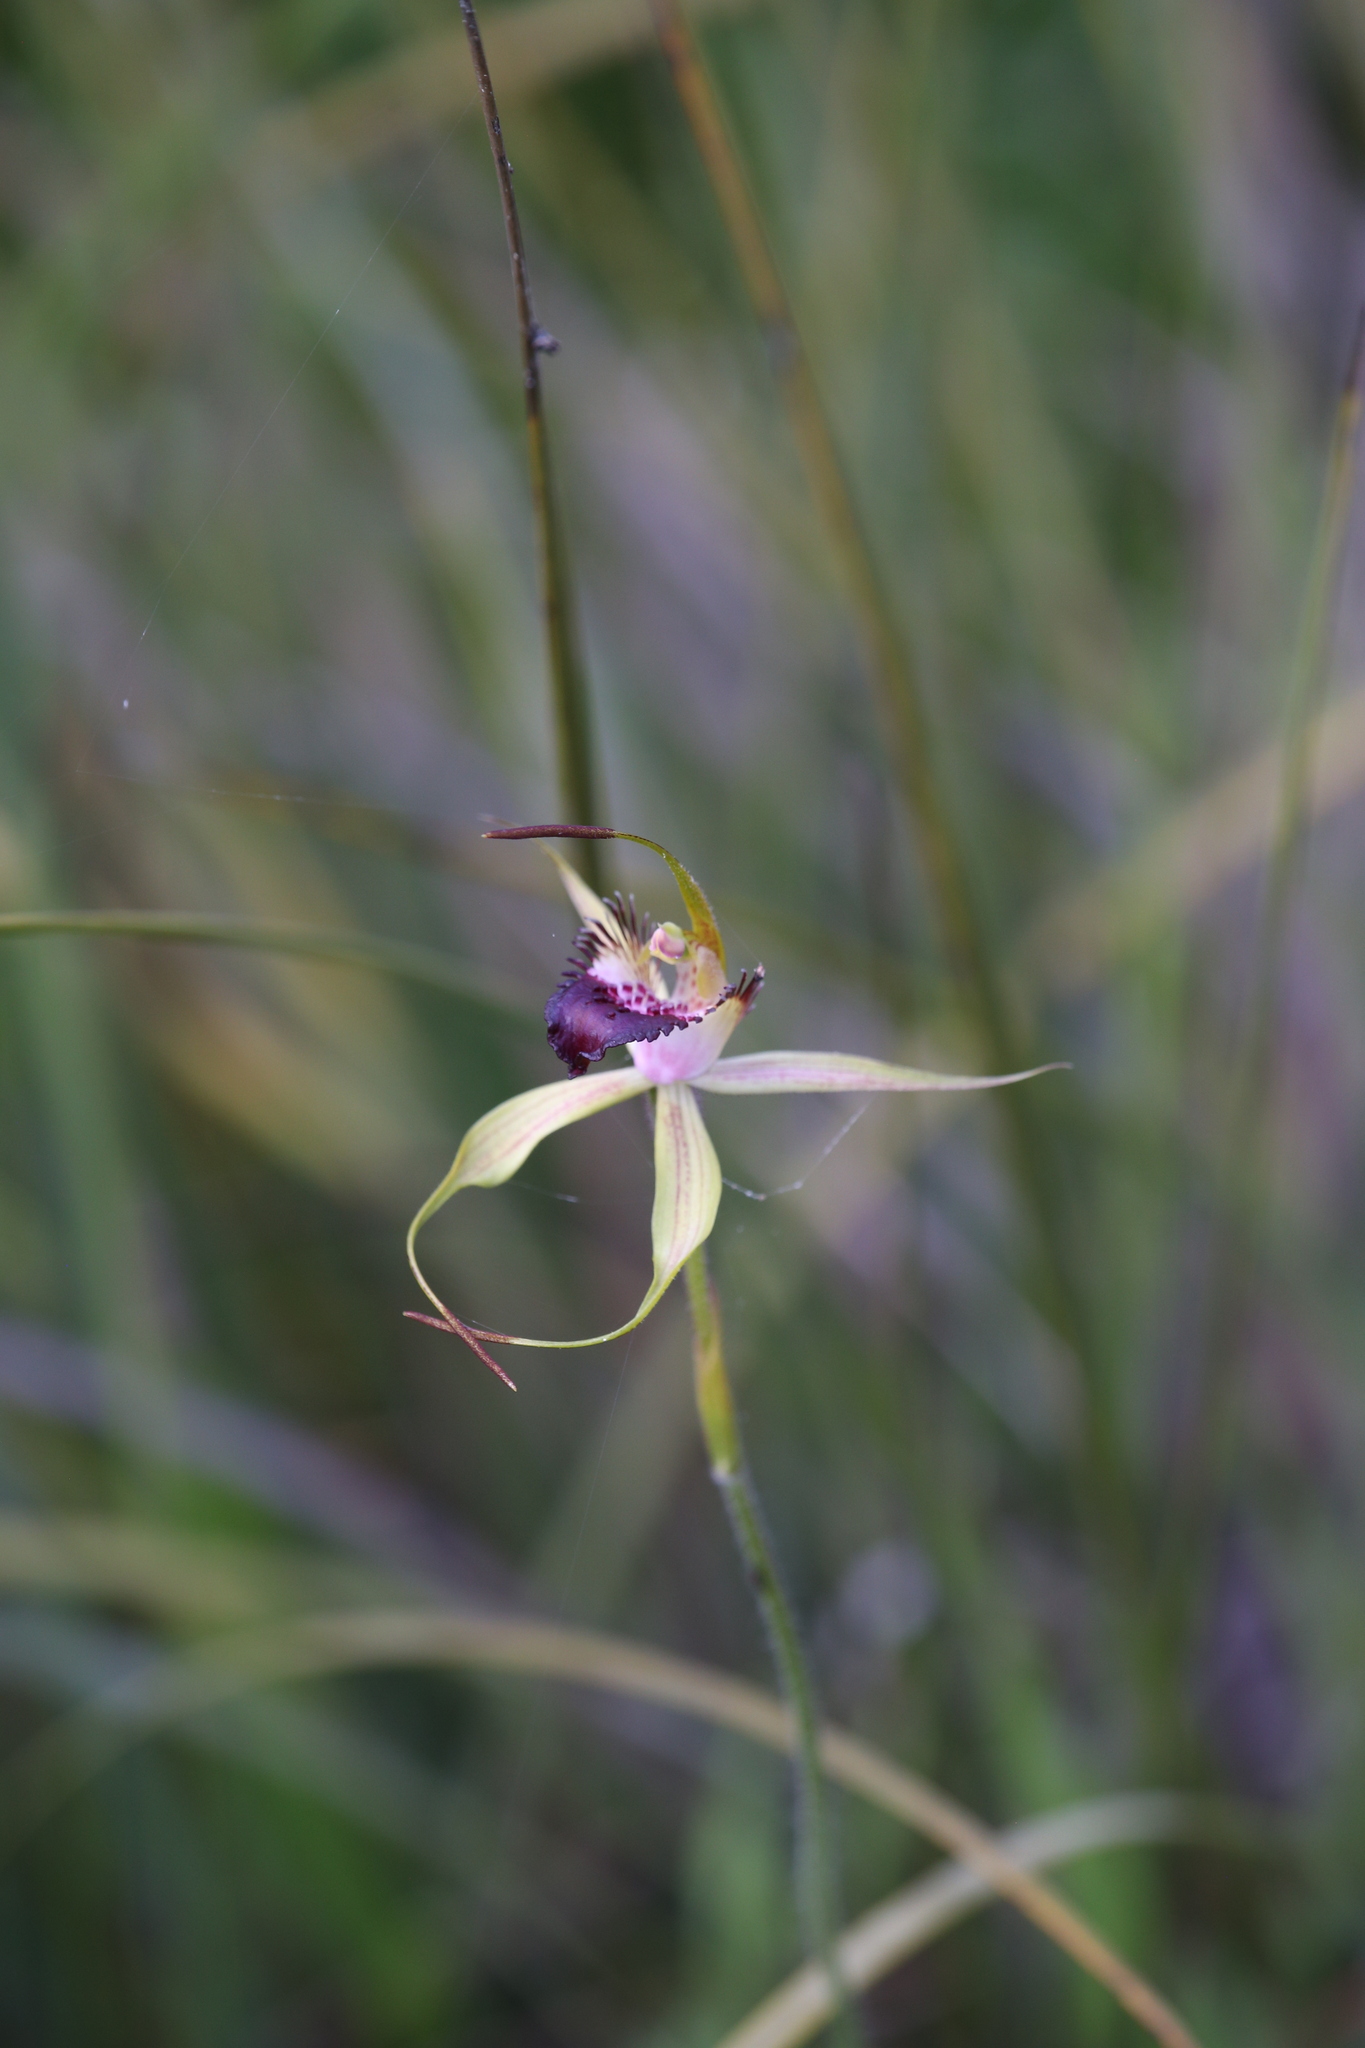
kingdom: Plantae
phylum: Tracheophyta
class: Liliopsida
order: Asparagales
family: Orchidaceae
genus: Caladenia
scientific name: Caladenia paludosa
